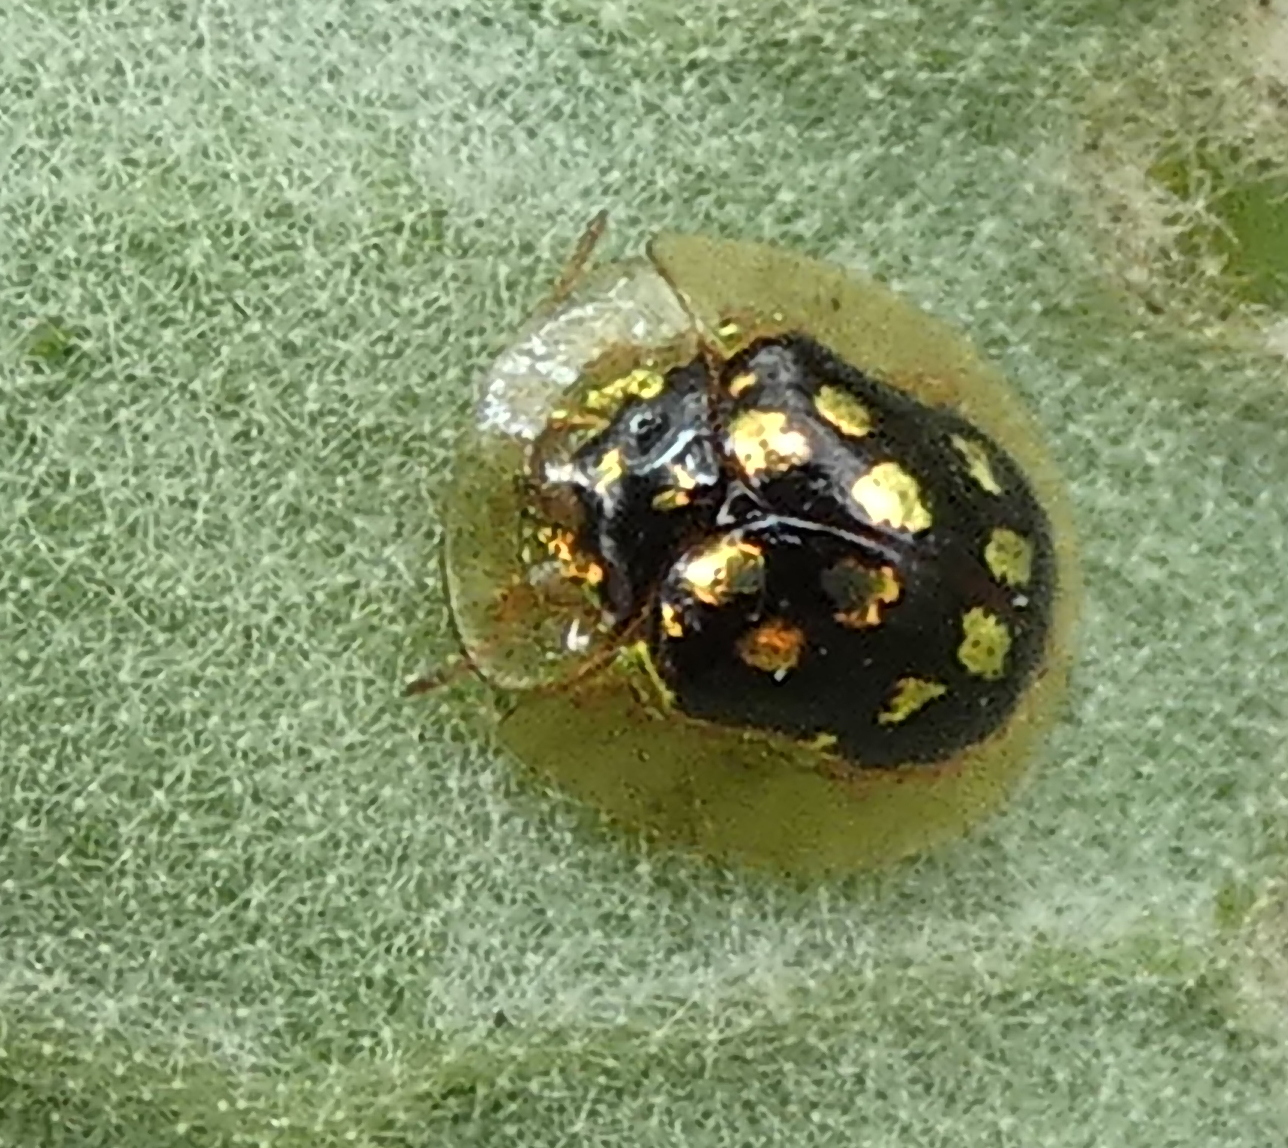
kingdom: Animalia
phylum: Arthropoda
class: Insecta
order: Coleoptera
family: Chrysomelidae
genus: Plagiometriona
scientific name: Plagiometriona microcera
